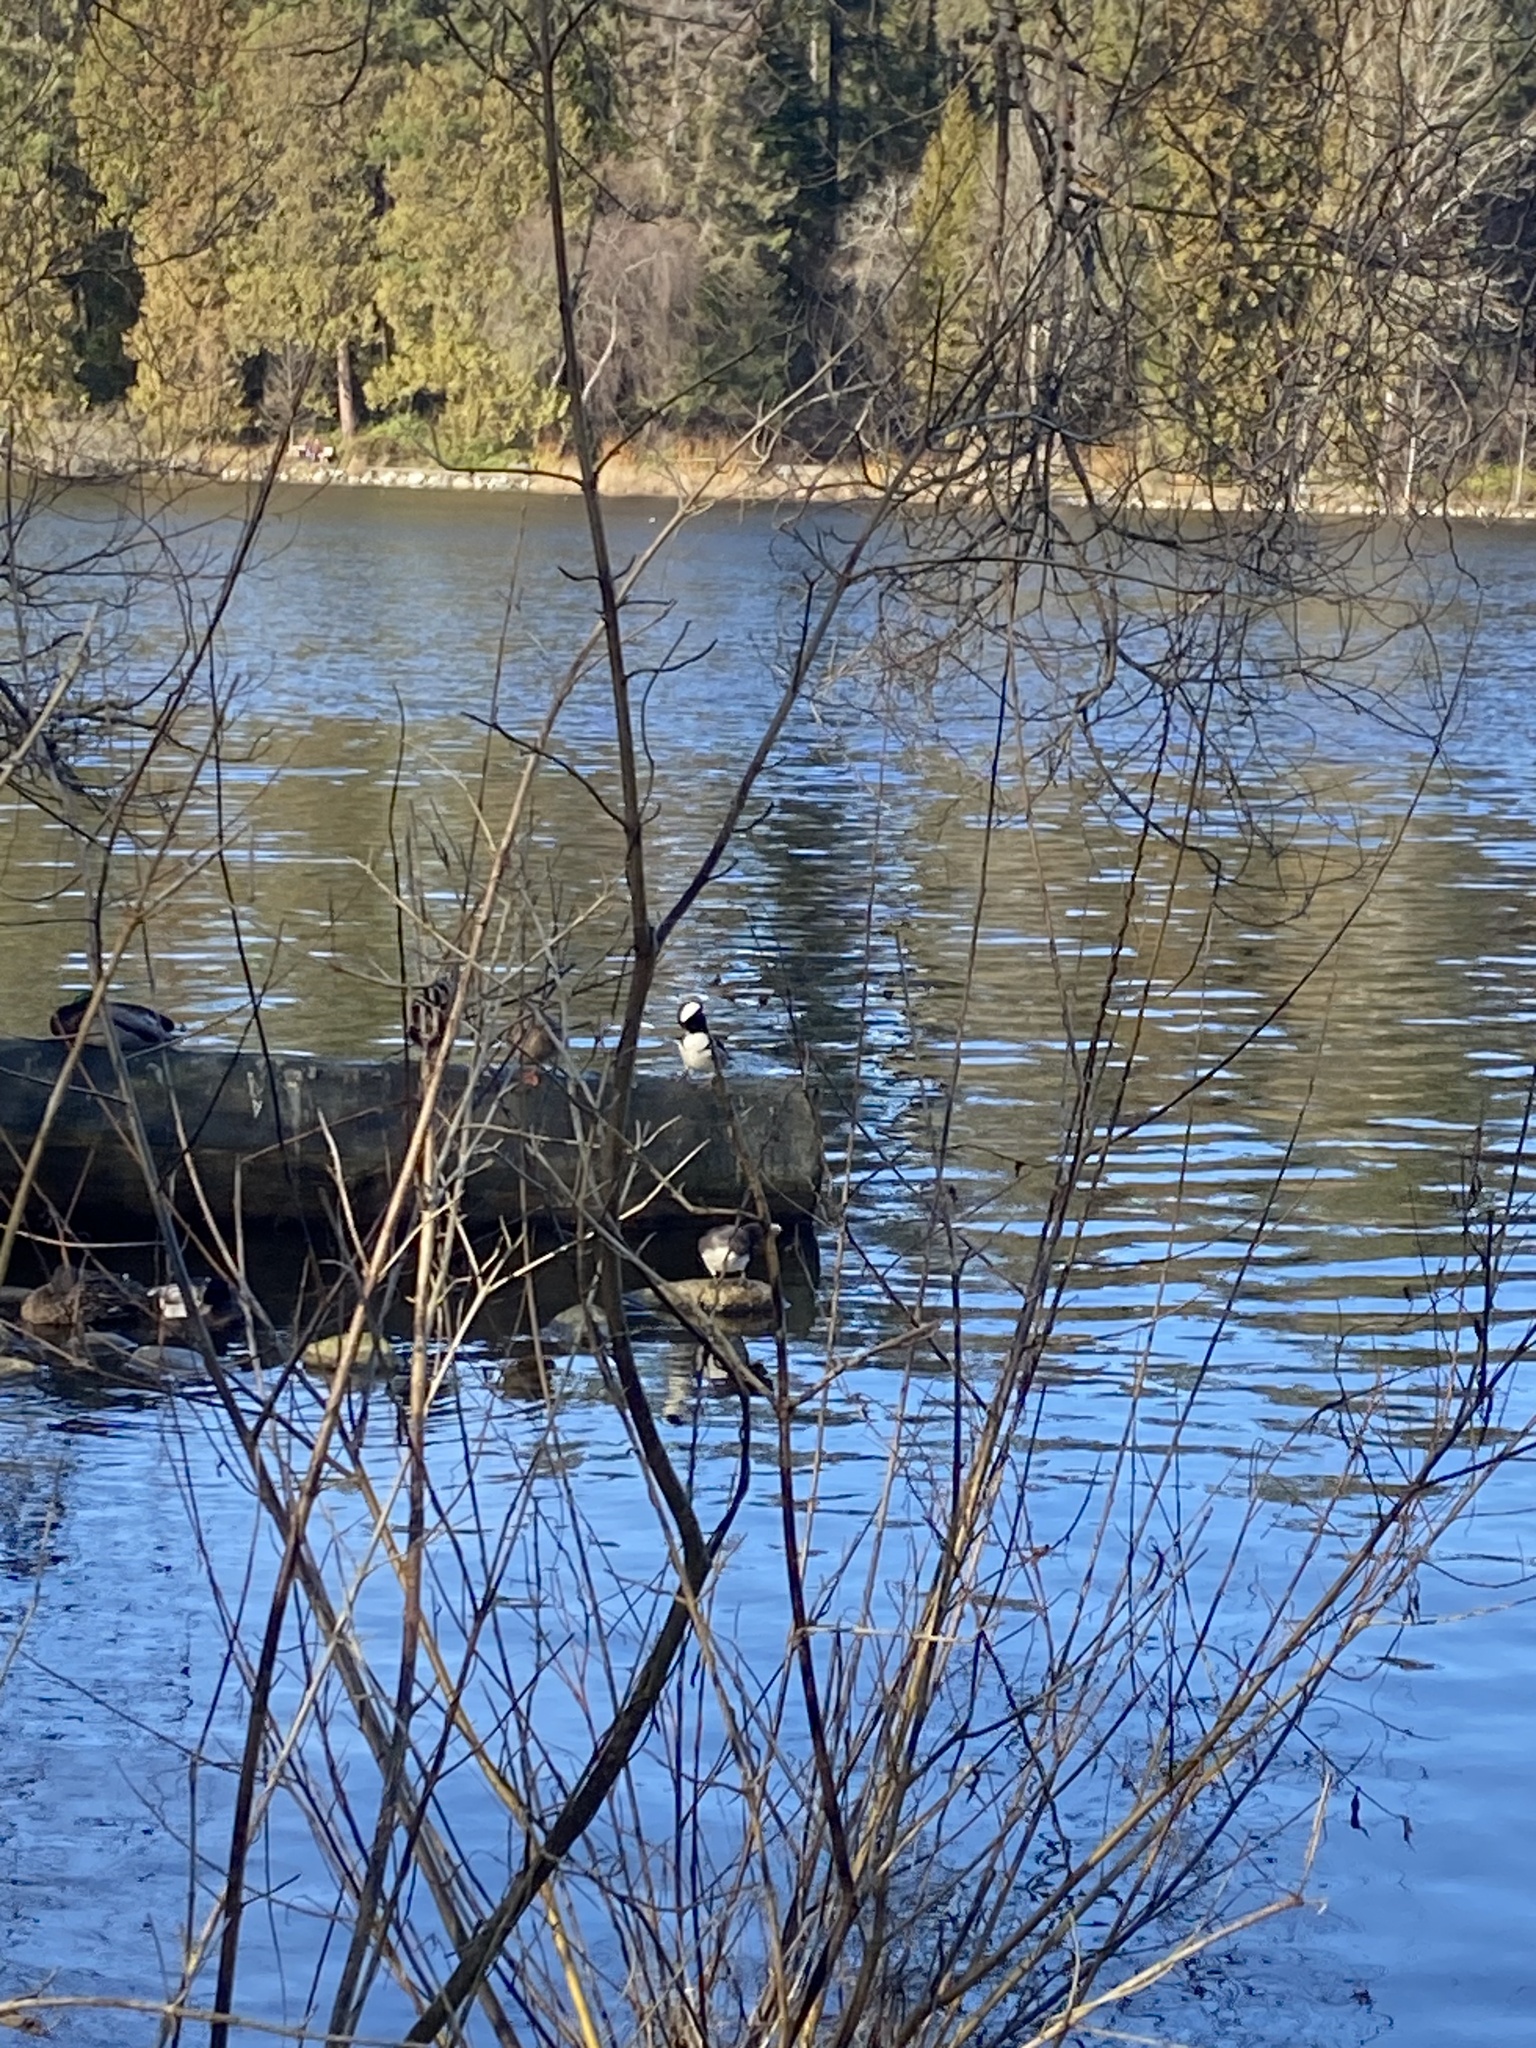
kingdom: Animalia
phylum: Chordata
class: Aves
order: Anseriformes
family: Anatidae
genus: Lophodytes
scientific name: Lophodytes cucullatus
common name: Hooded merganser
